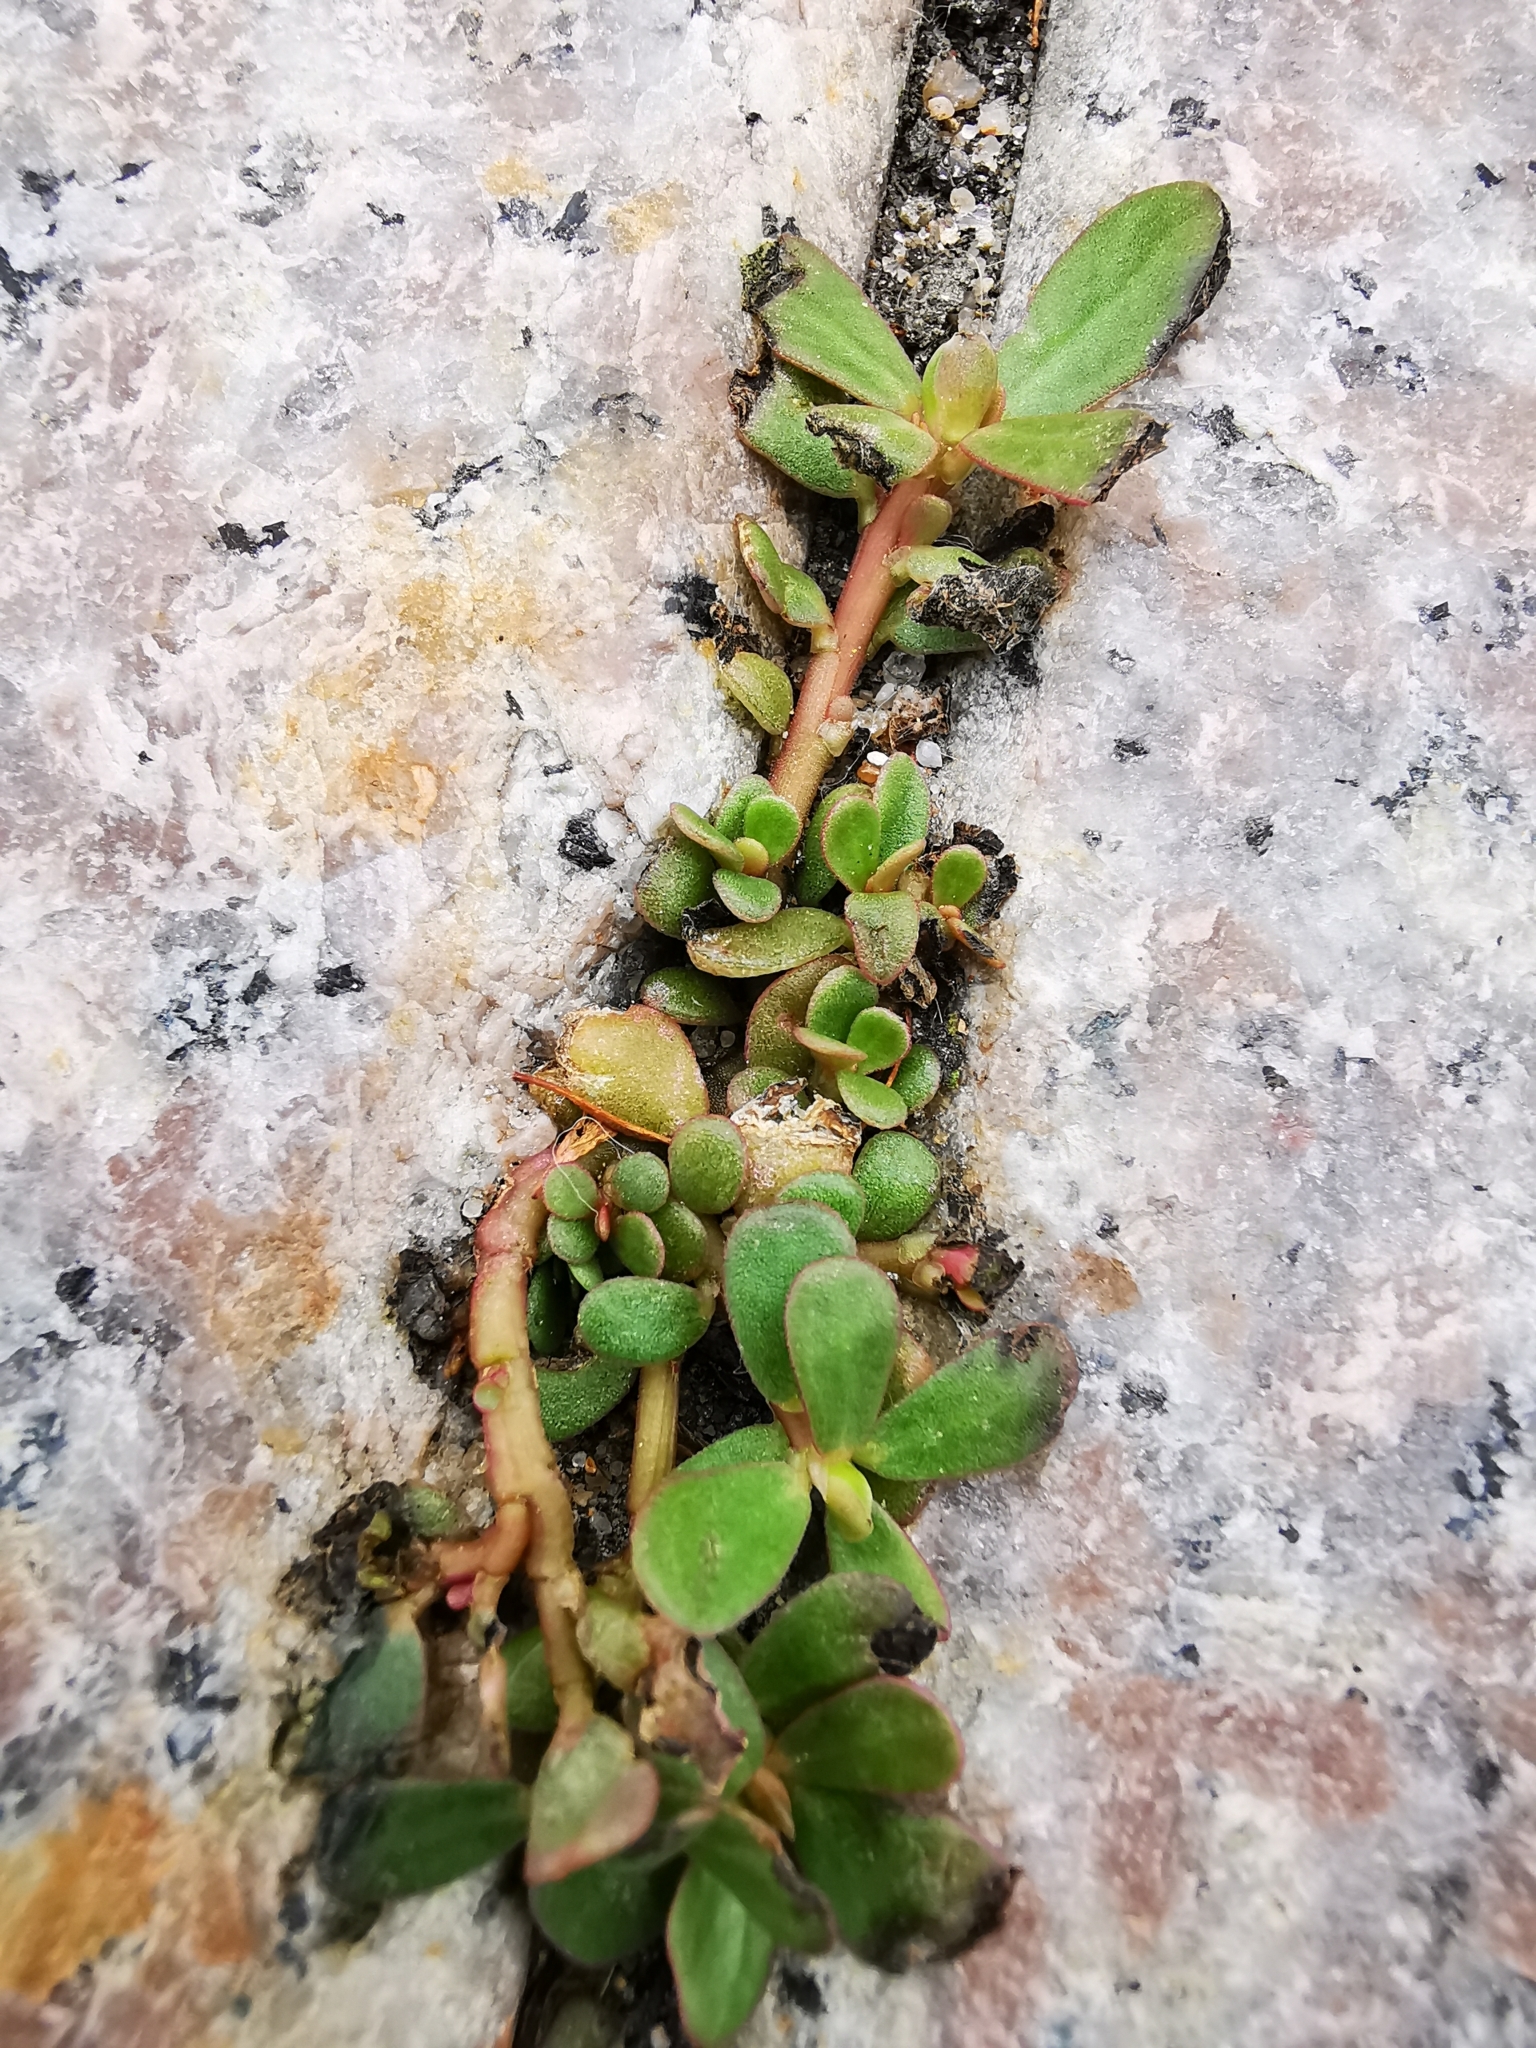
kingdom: Plantae
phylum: Tracheophyta
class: Magnoliopsida
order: Caryophyllales
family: Portulacaceae
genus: Portulaca
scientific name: Portulaca oleracea
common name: Common purslane
